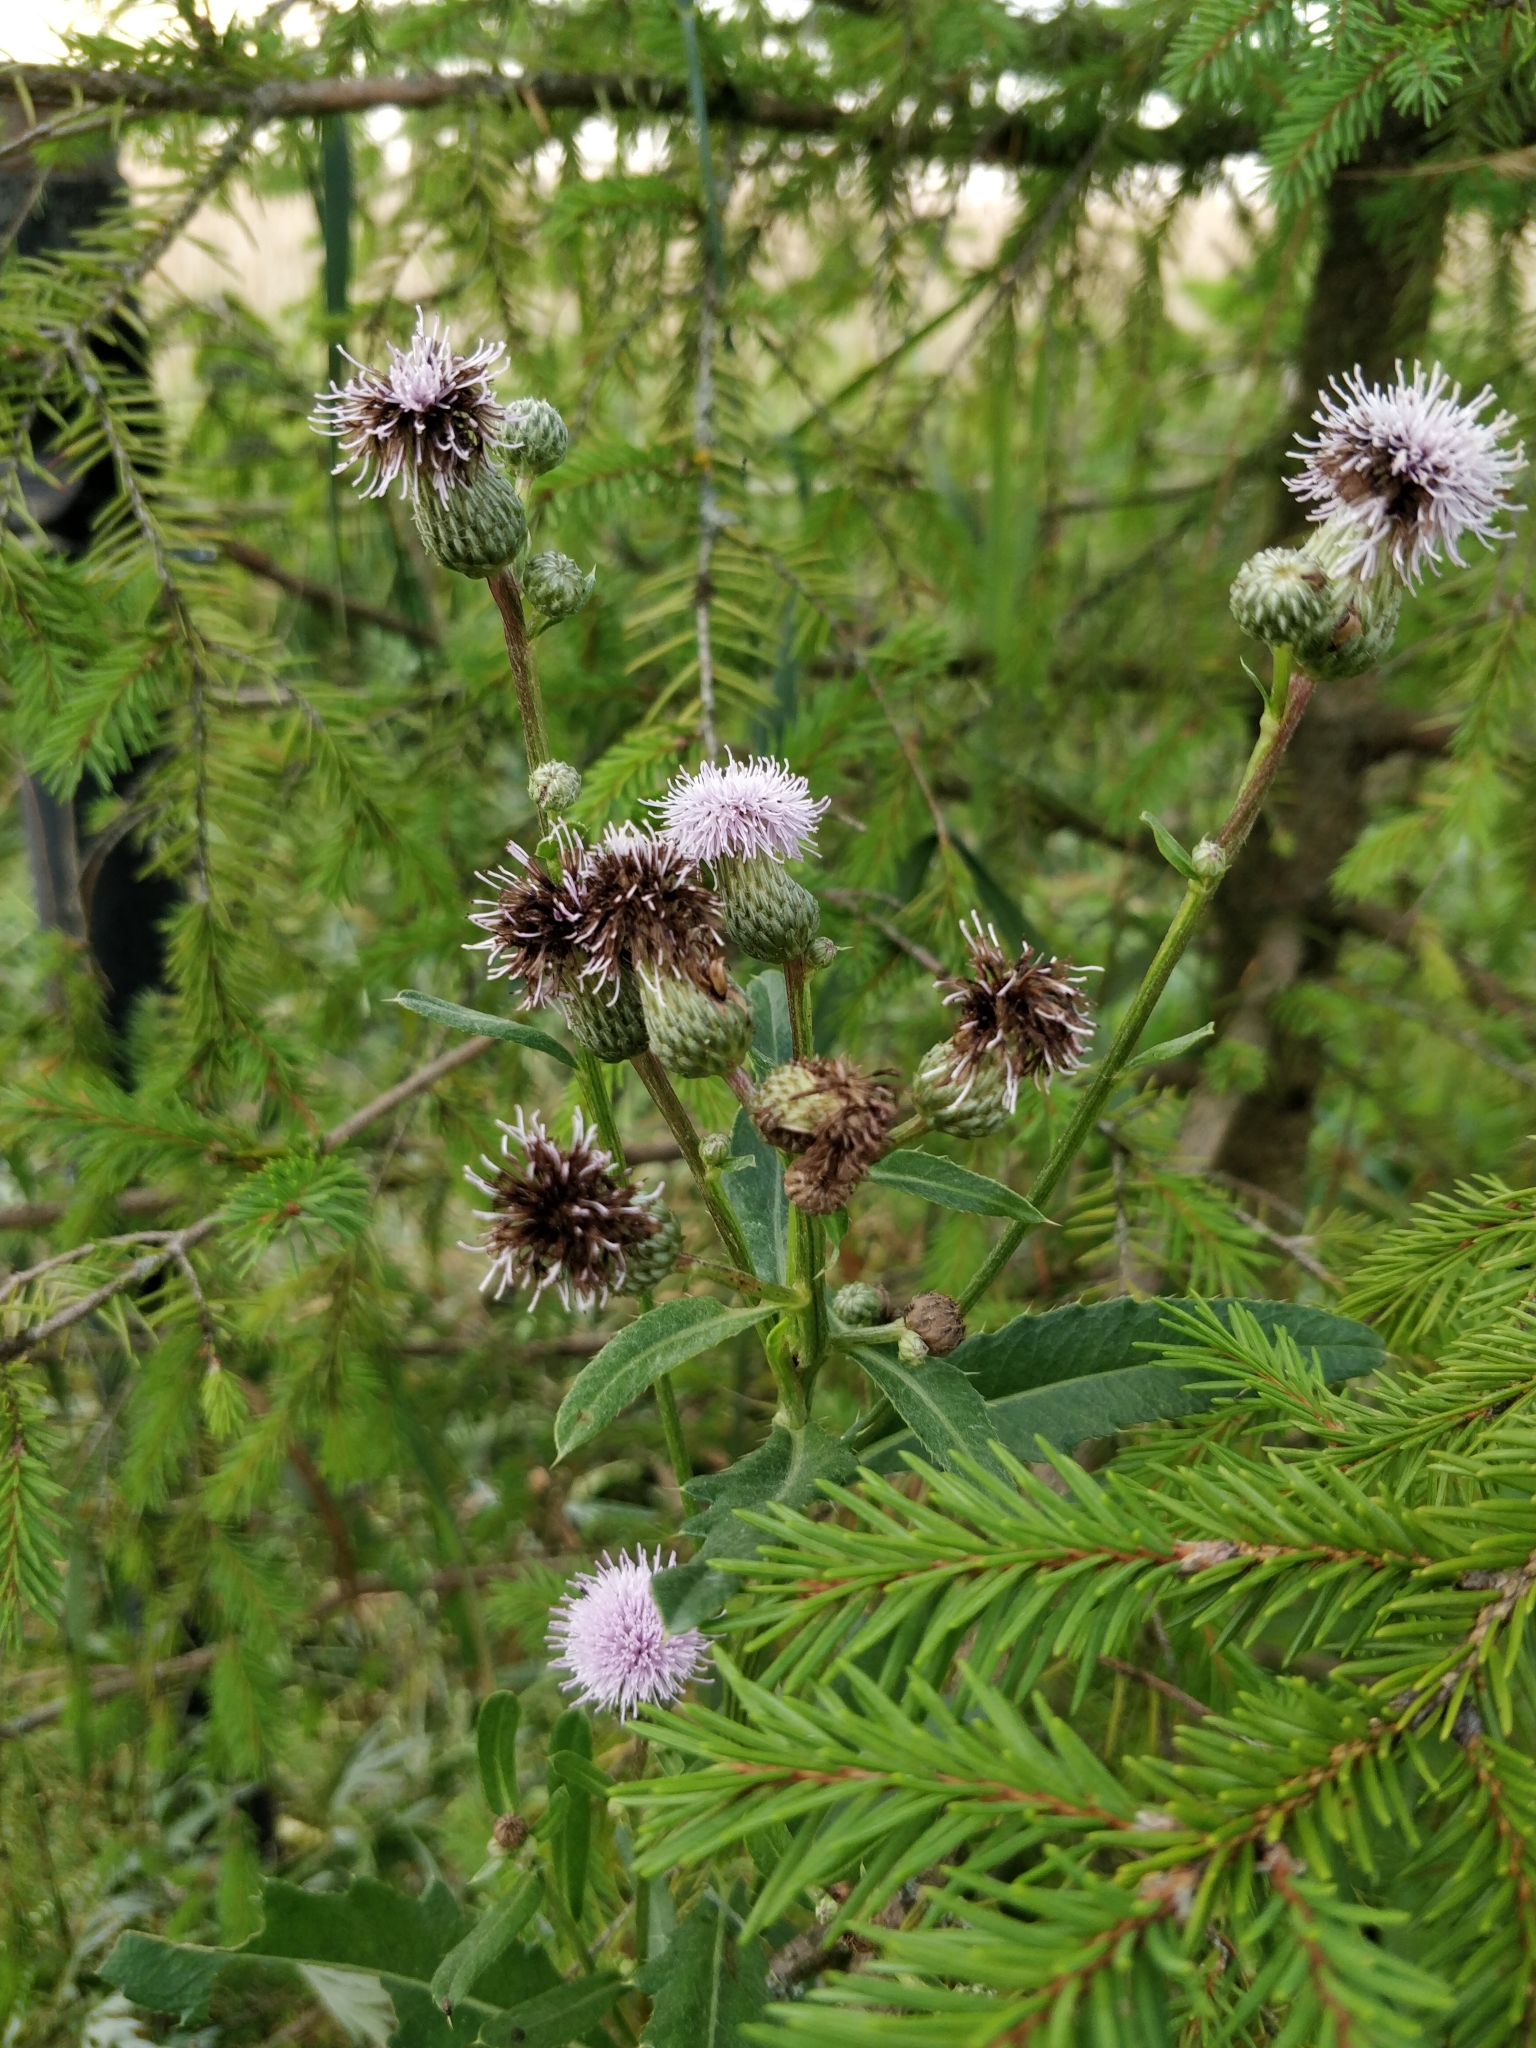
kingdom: Plantae
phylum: Tracheophyta
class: Magnoliopsida
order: Asterales
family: Asteraceae
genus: Cirsium
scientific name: Cirsium arvense
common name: Creeping thistle
